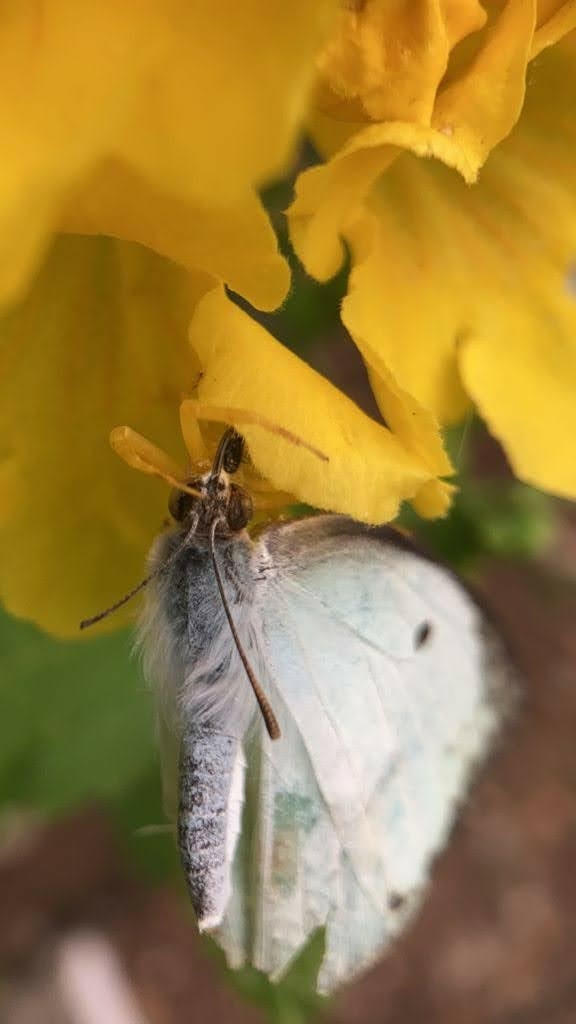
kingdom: Animalia
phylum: Arthropoda
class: Insecta
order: Lepidoptera
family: Pieridae
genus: Catopsilia
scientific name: Catopsilia pyranthe
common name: Mottled emigrant
